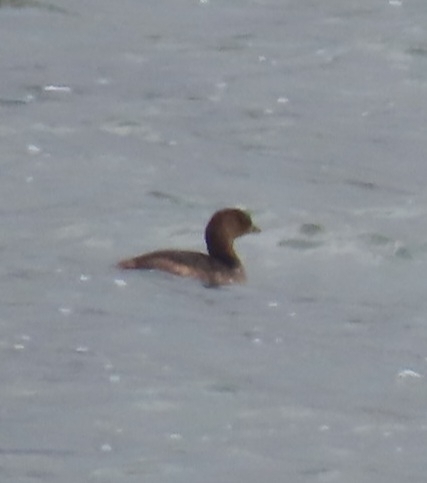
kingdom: Animalia
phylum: Chordata
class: Aves
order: Podicipediformes
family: Podicipedidae
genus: Podilymbus
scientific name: Podilymbus podiceps
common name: Pied-billed grebe
